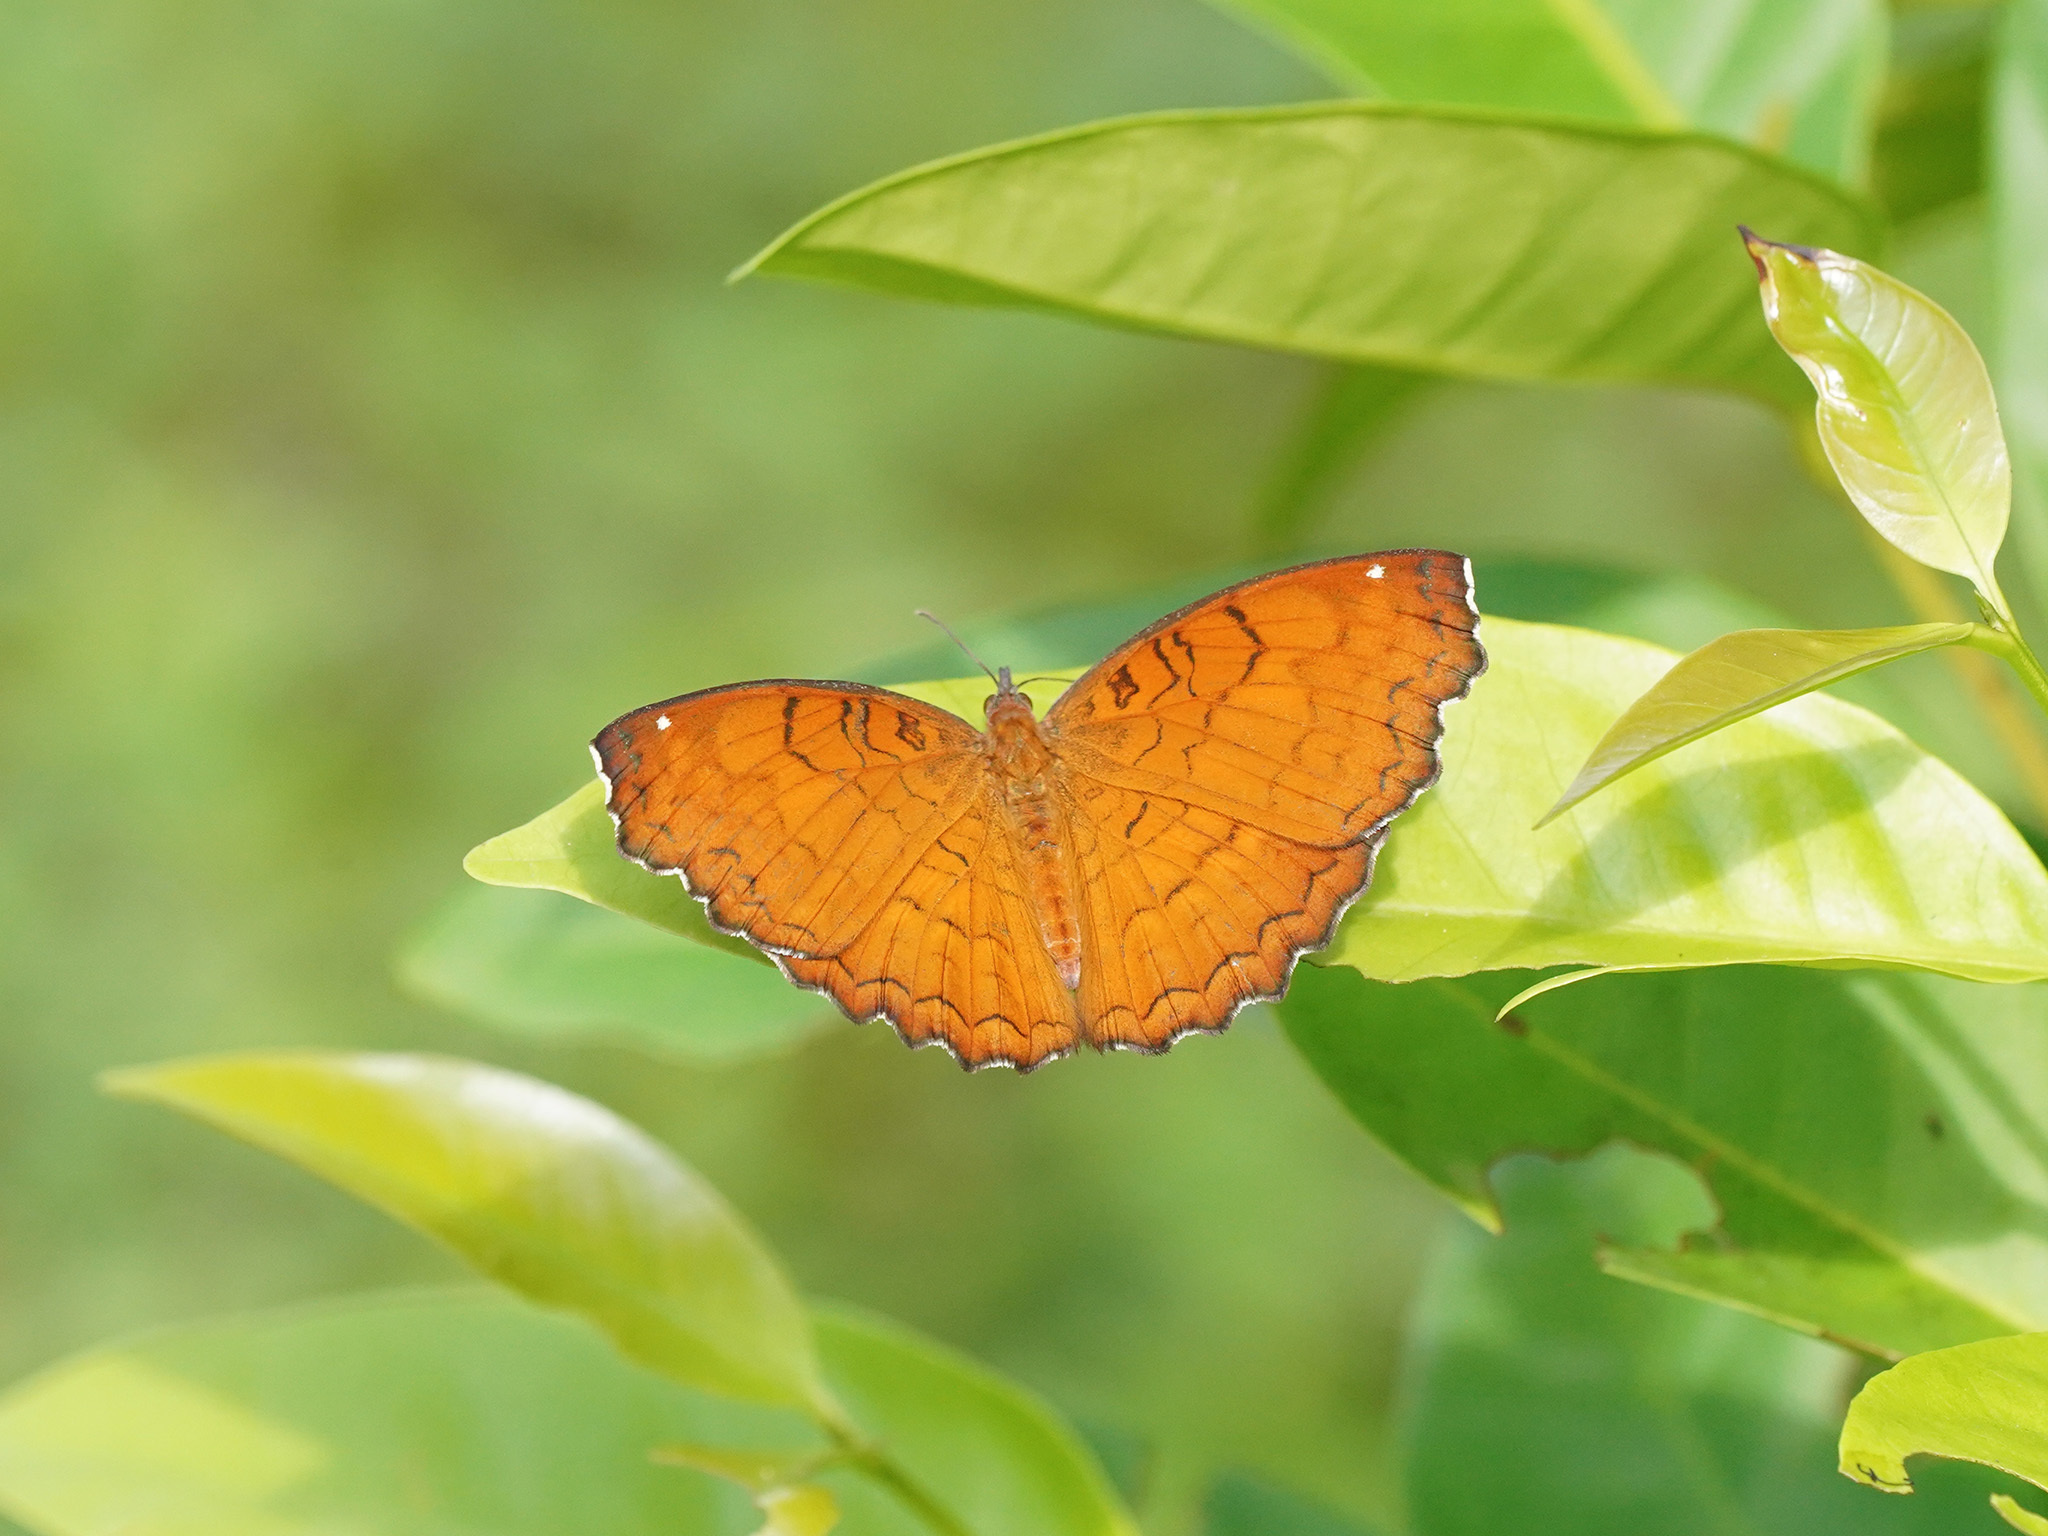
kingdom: Animalia
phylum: Arthropoda
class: Insecta
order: Lepidoptera
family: Nymphalidae
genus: Ariadne
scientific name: Ariadne ariadne
